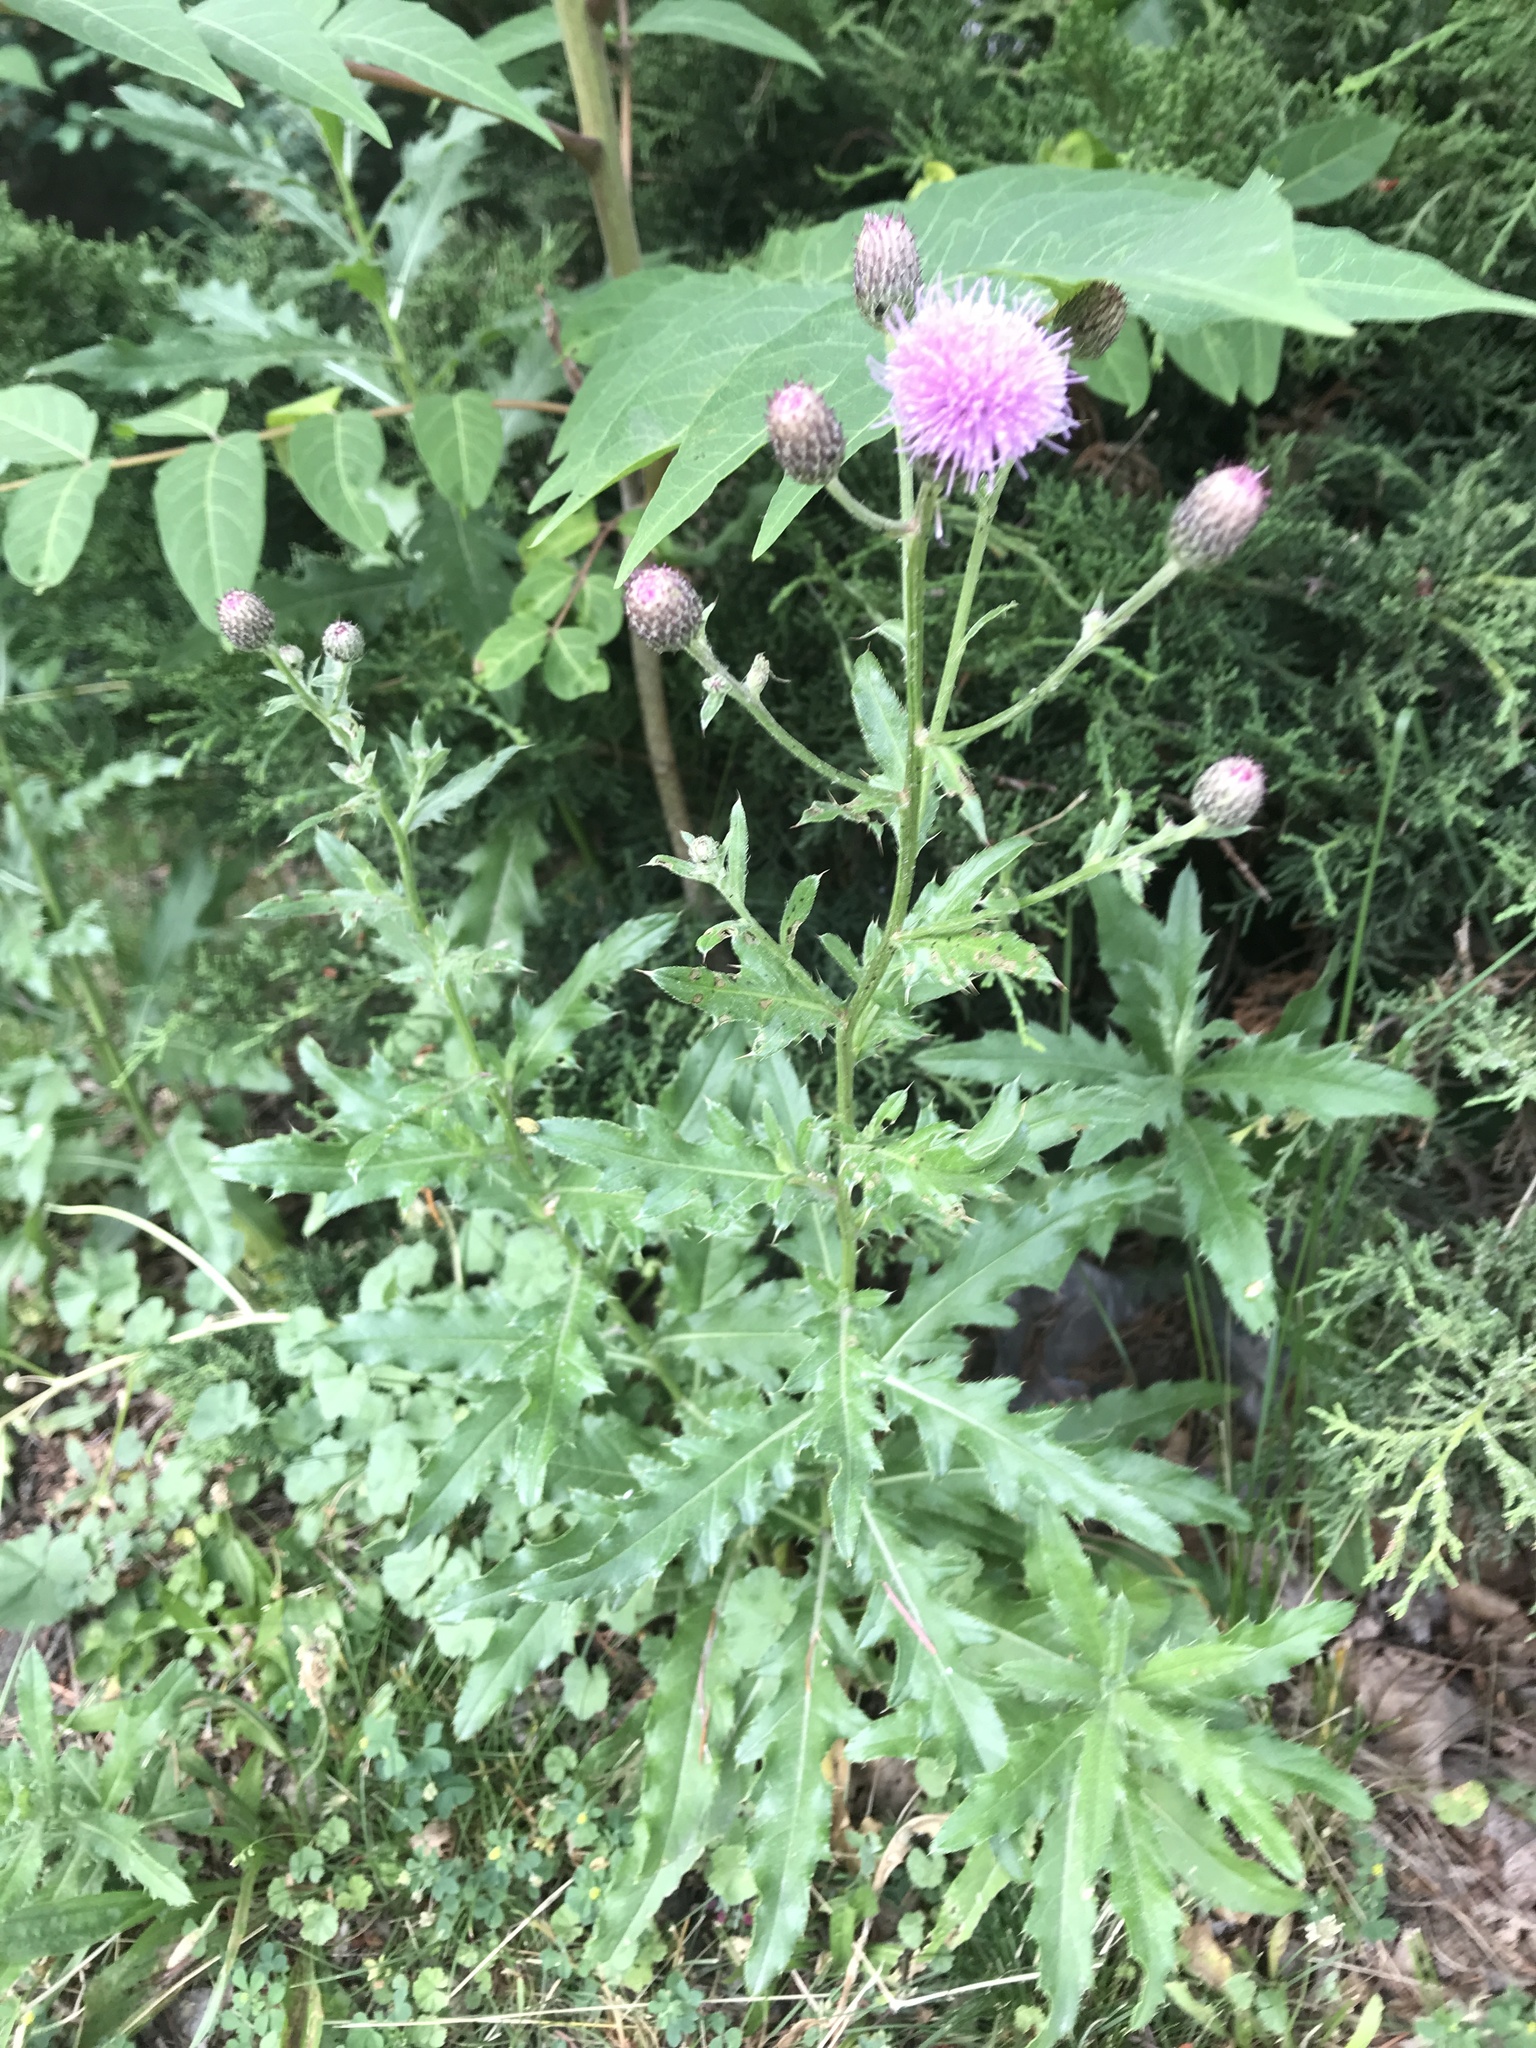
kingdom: Plantae
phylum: Tracheophyta
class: Magnoliopsida
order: Asterales
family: Asteraceae
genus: Cirsium
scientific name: Cirsium arvense
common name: Creeping thistle
